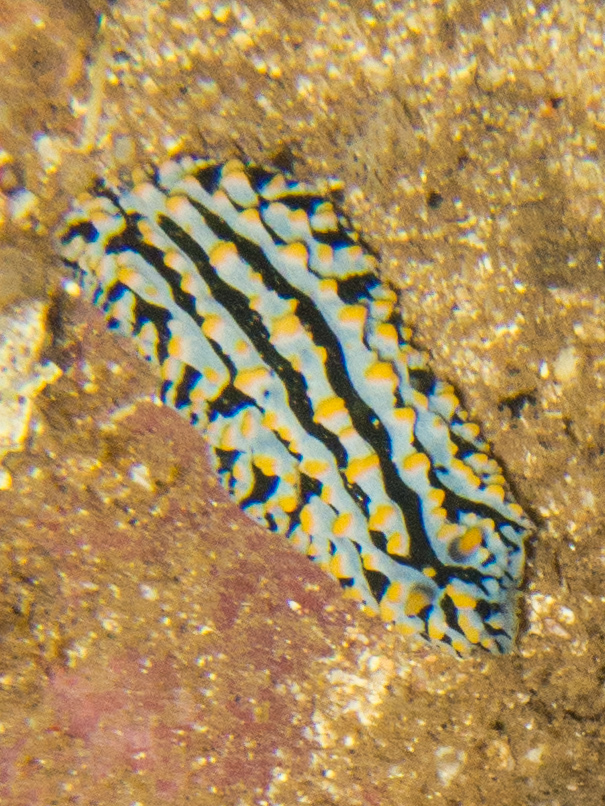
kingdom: Animalia
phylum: Mollusca
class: Gastropoda
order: Nudibranchia
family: Phyllidiidae
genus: Phyllidia
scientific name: Phyllidia varicosa
